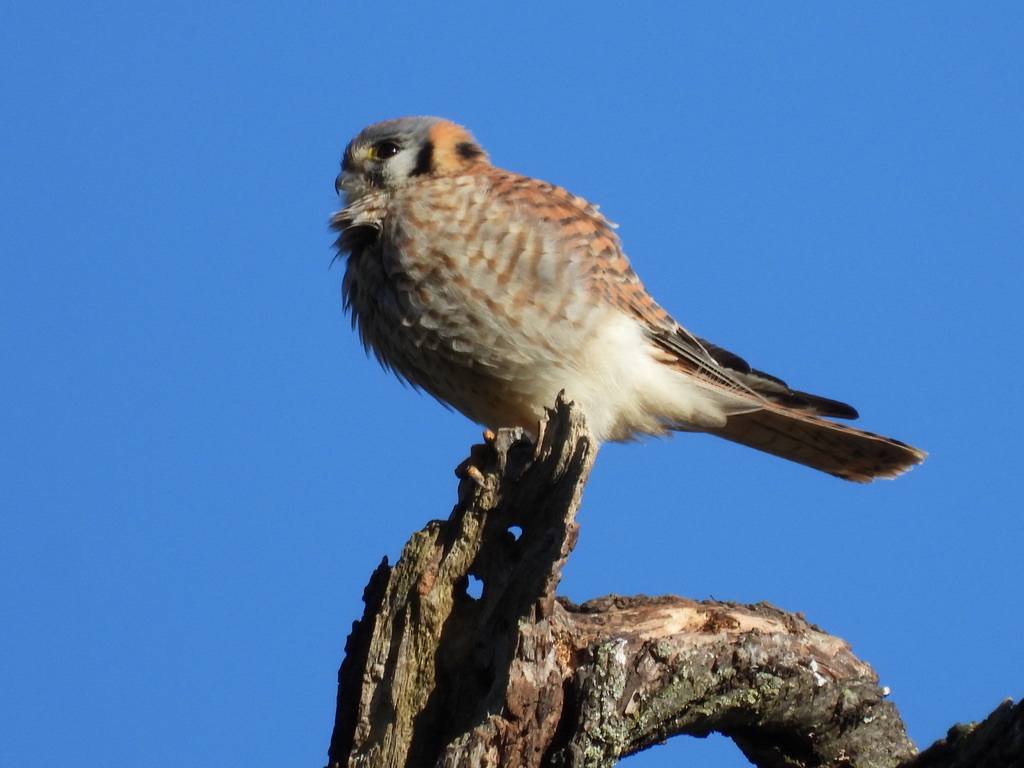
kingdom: Animalia
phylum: Chordata
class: Aves
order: Falconiformes
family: Falconidae
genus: Falco
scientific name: Falco sparverius
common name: American kestrel
